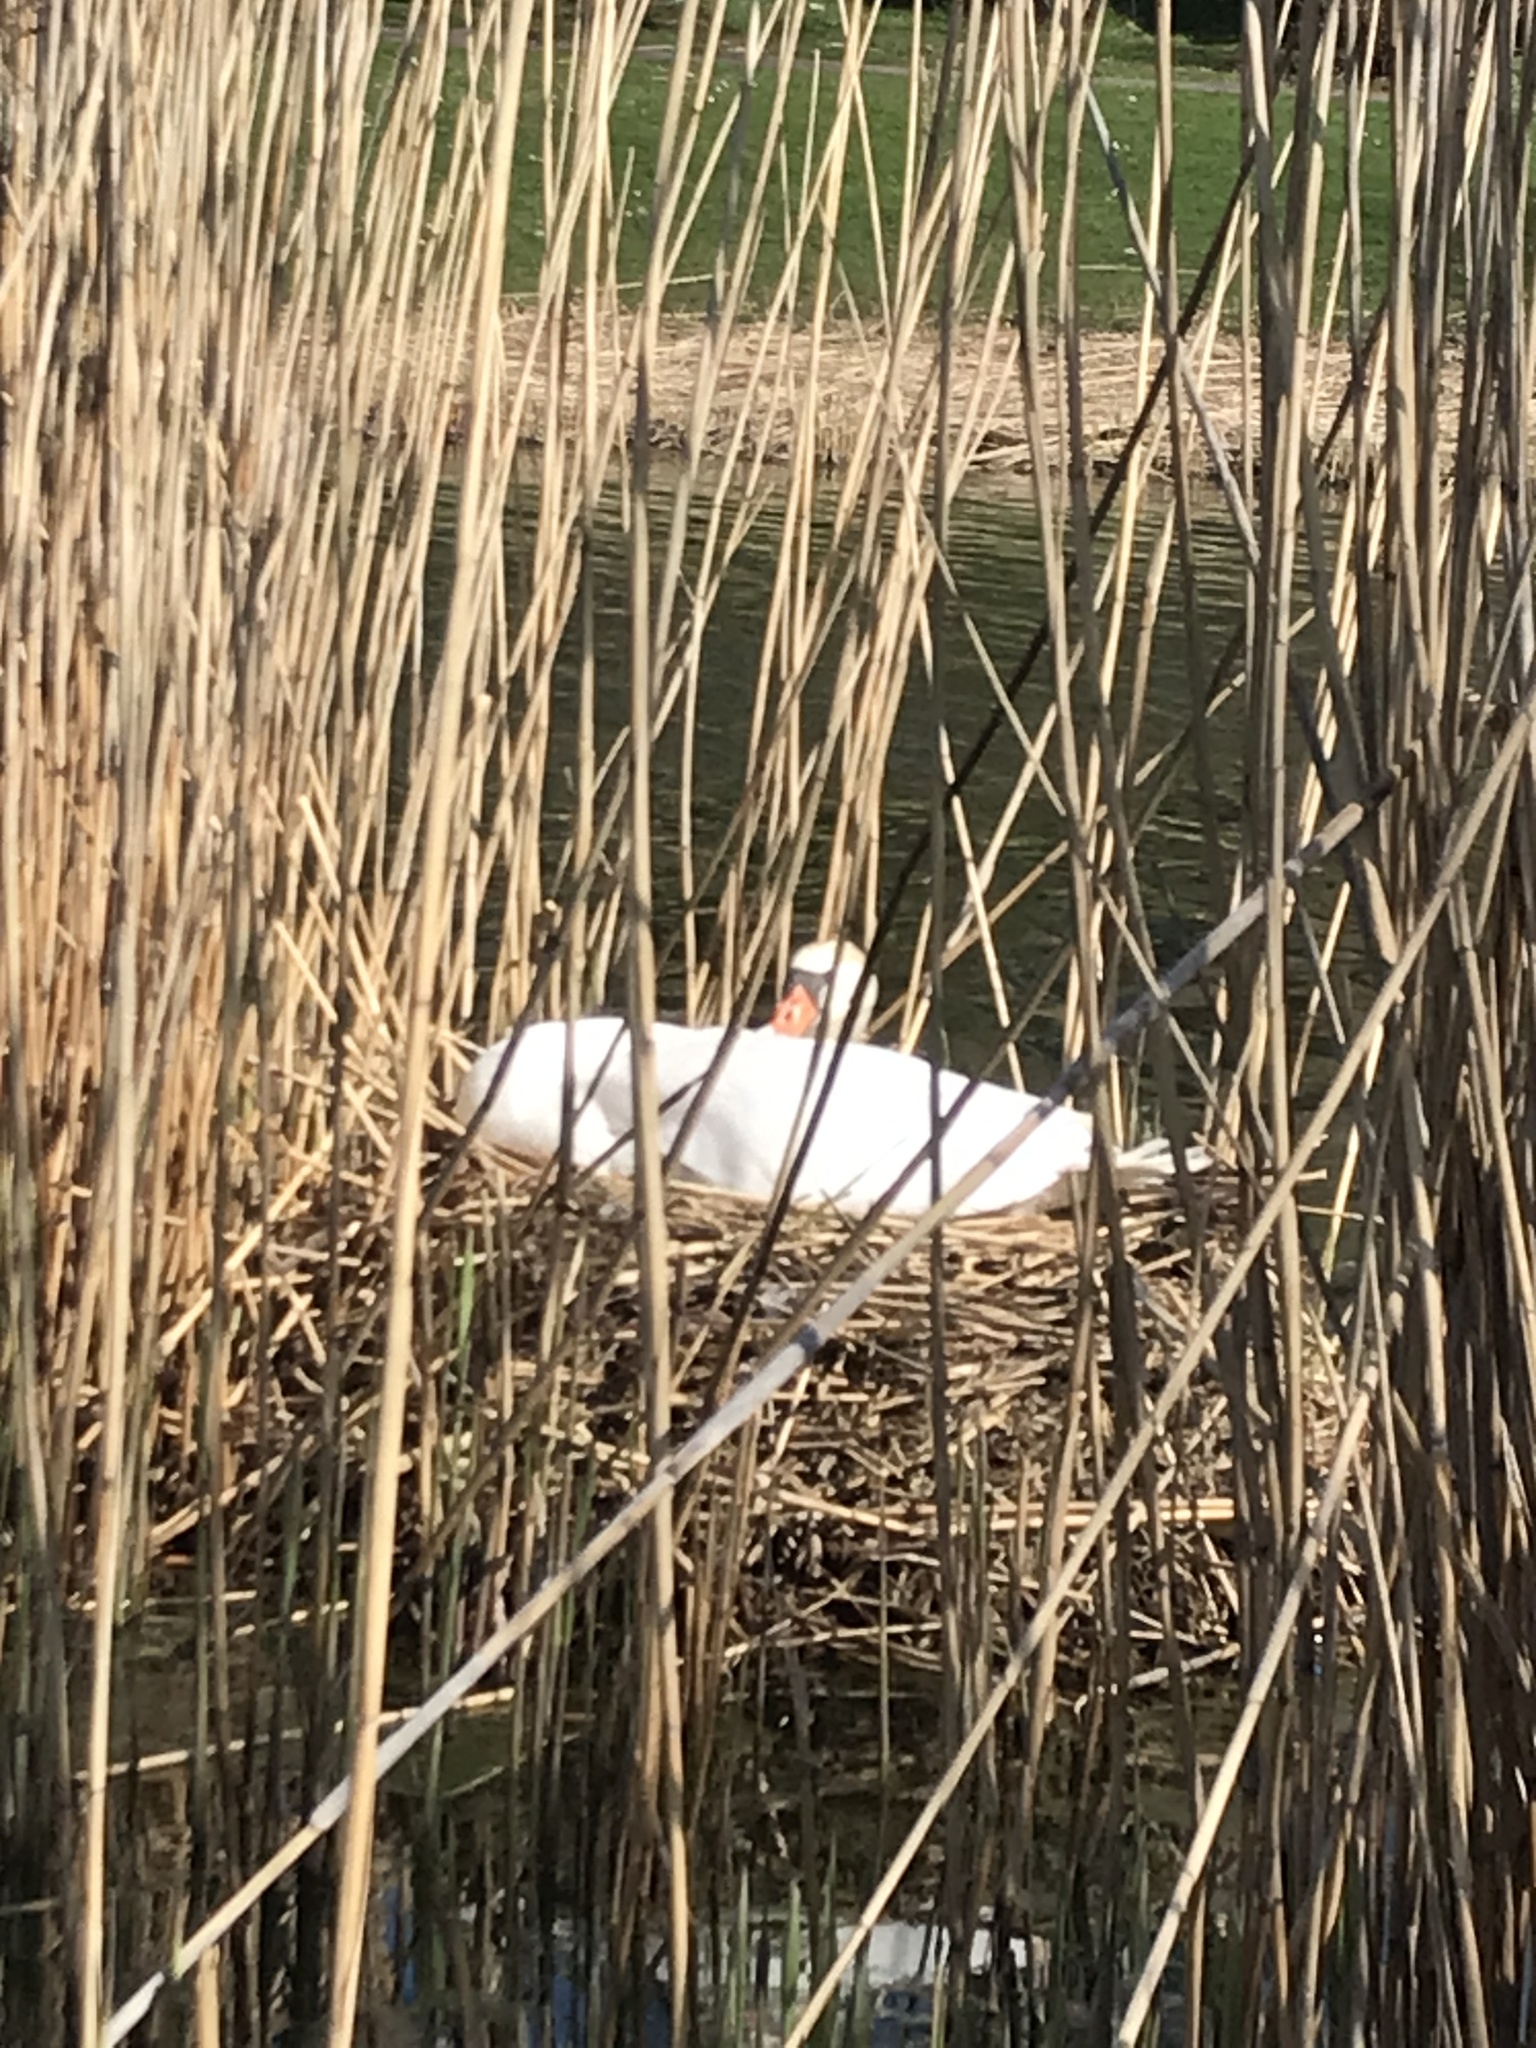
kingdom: Animalia
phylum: Chordata
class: Aves
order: Anseriformes
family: Anatidae
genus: Cygnus
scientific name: Cygnus olor
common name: Mute swan
